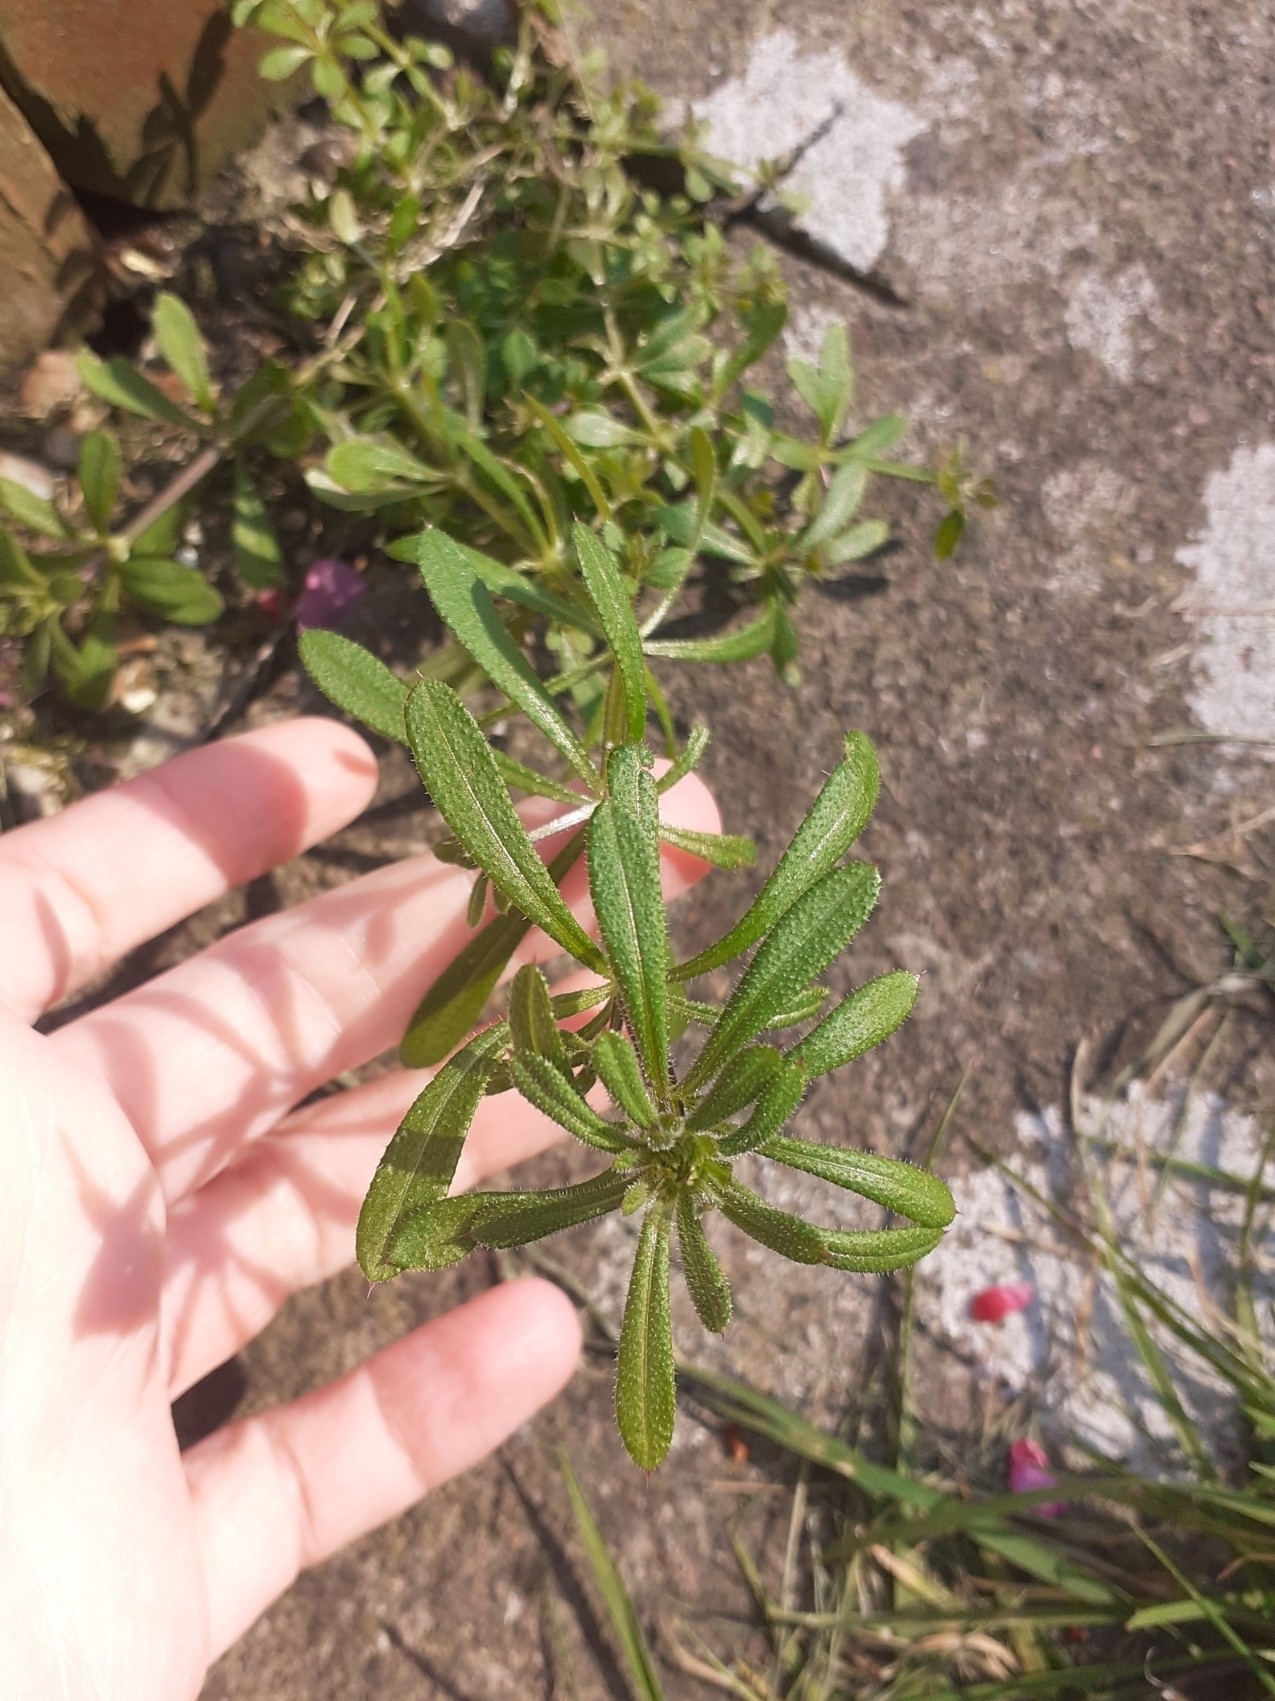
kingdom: Plantae
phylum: Tracheophyta
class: Magnoliopsida
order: Gentianales
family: Rubiaceae
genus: Galium
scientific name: Galium aparine
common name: Cleavers
